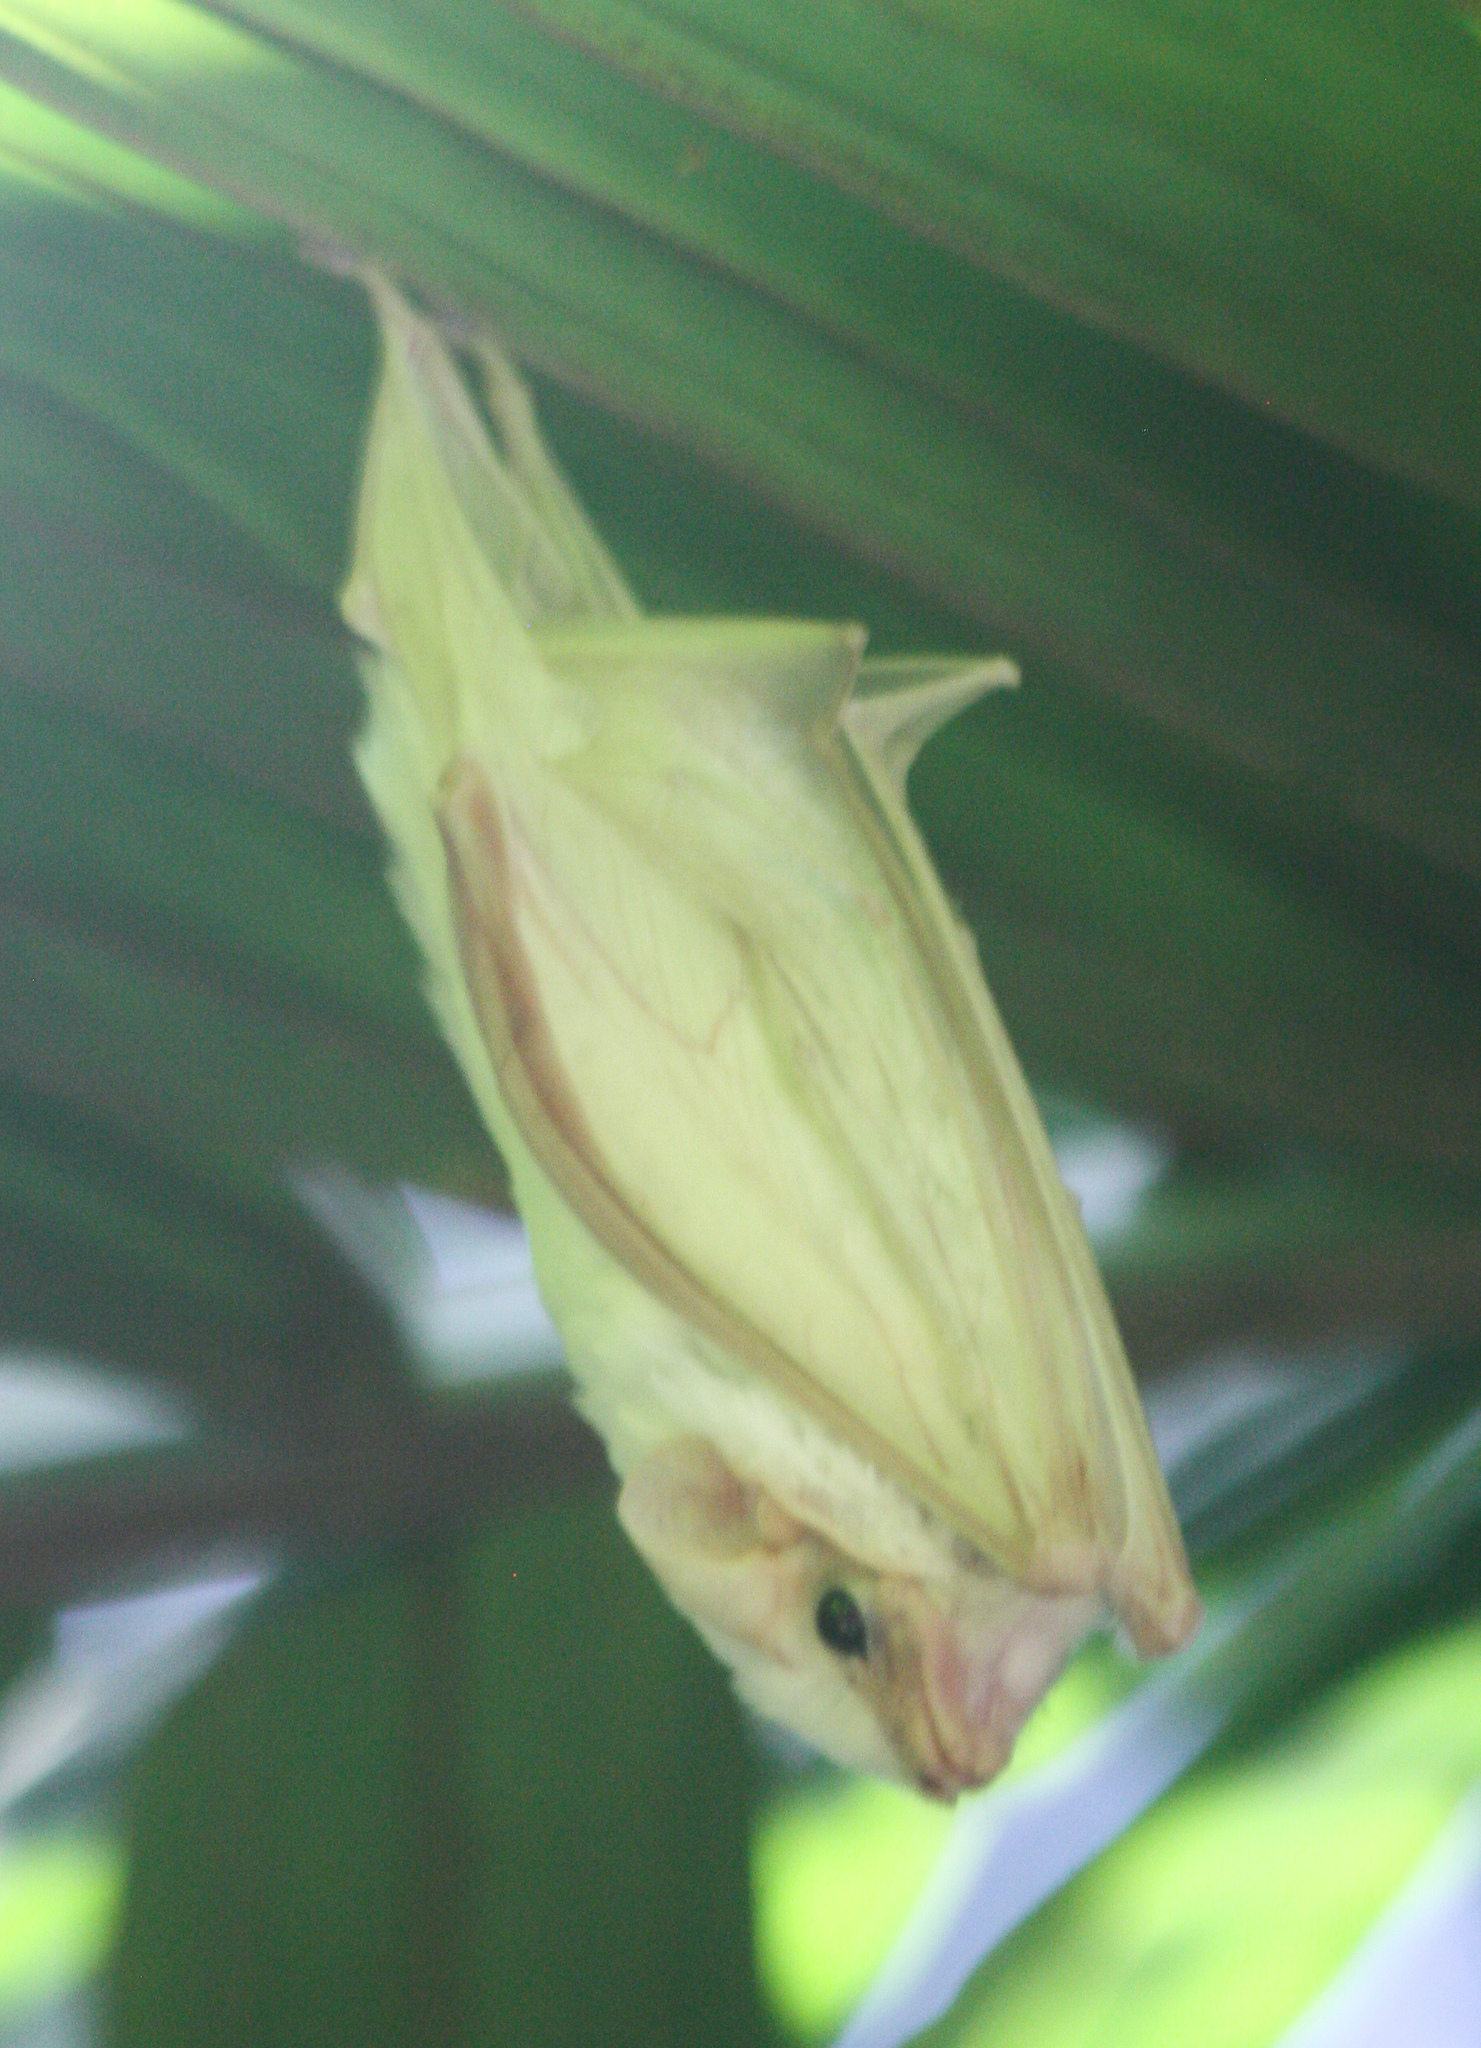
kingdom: Animalia
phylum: Chordata
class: Mammalia
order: Chiroptera
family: Emballonuridae
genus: Diclidurus
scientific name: Diclidurus albus
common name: Northern ghost bat
